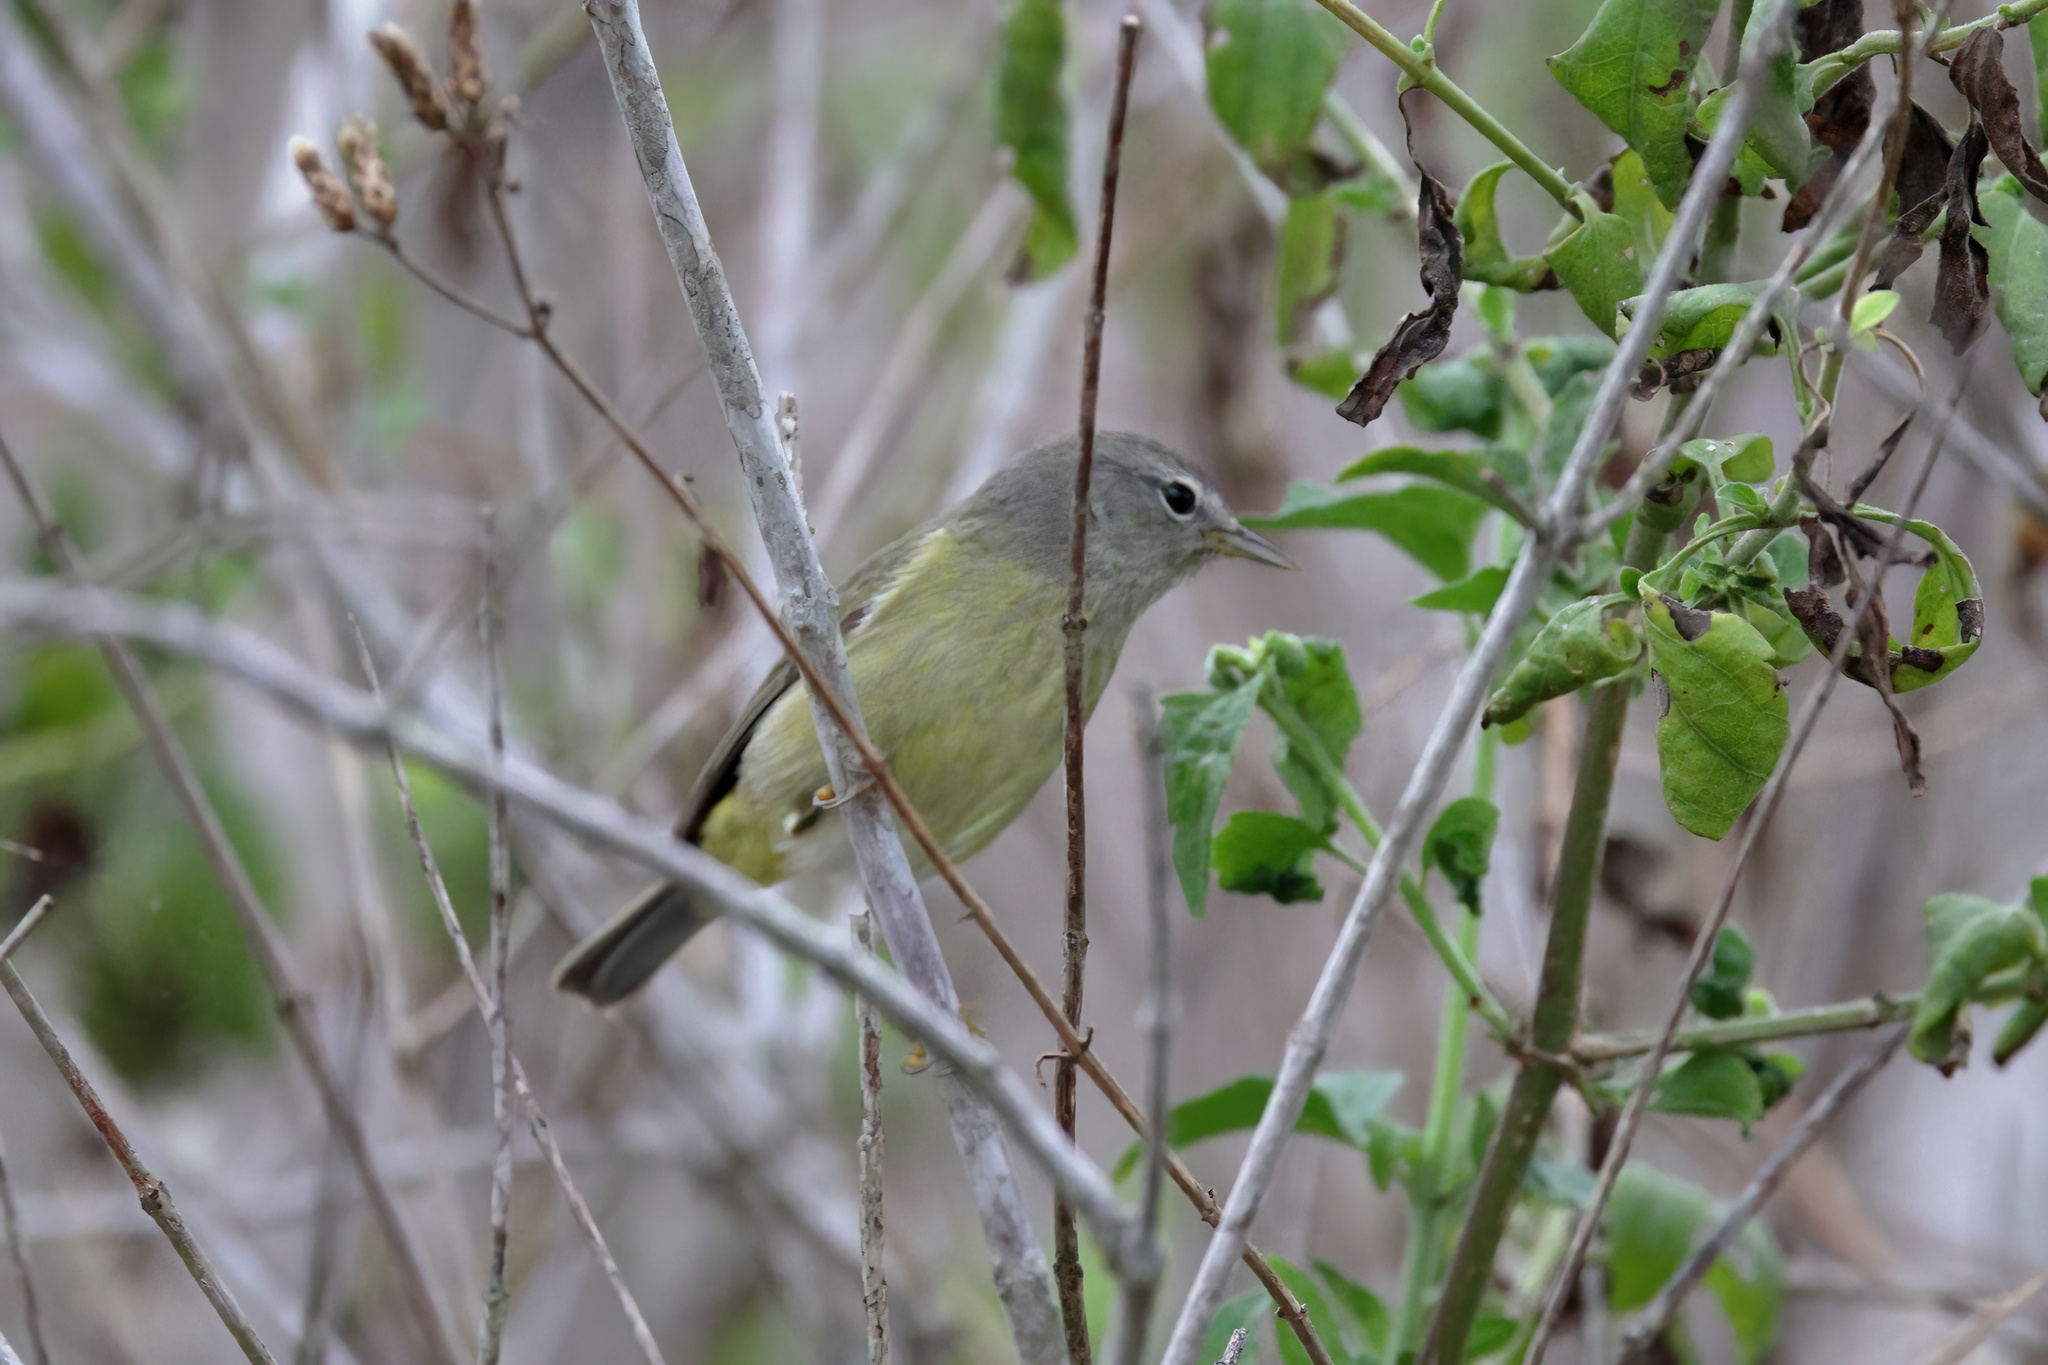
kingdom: Animalia
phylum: Chordata
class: Aves
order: Passeriformes
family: Parulidae
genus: Leiothlypis
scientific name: Leiothlypis celata
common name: Orange-crowned warbler
